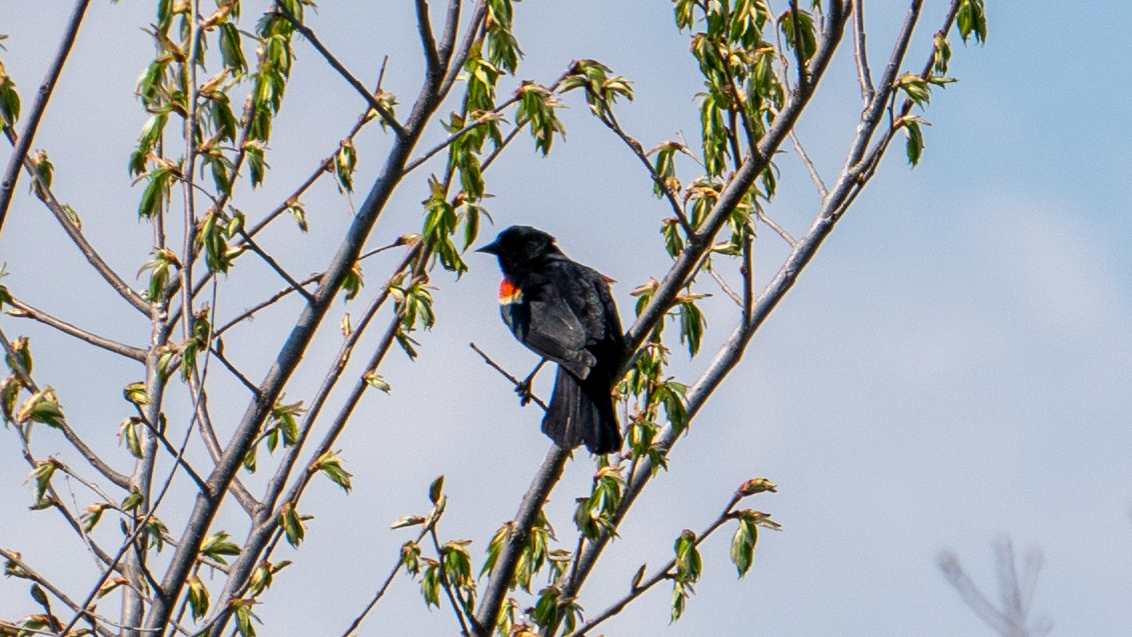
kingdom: Animalia
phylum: Chordata
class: Aves
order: Passeriformes
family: Icteridae
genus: Agelaius
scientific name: Agelaius phoeniceus
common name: Red-winged blackbird
